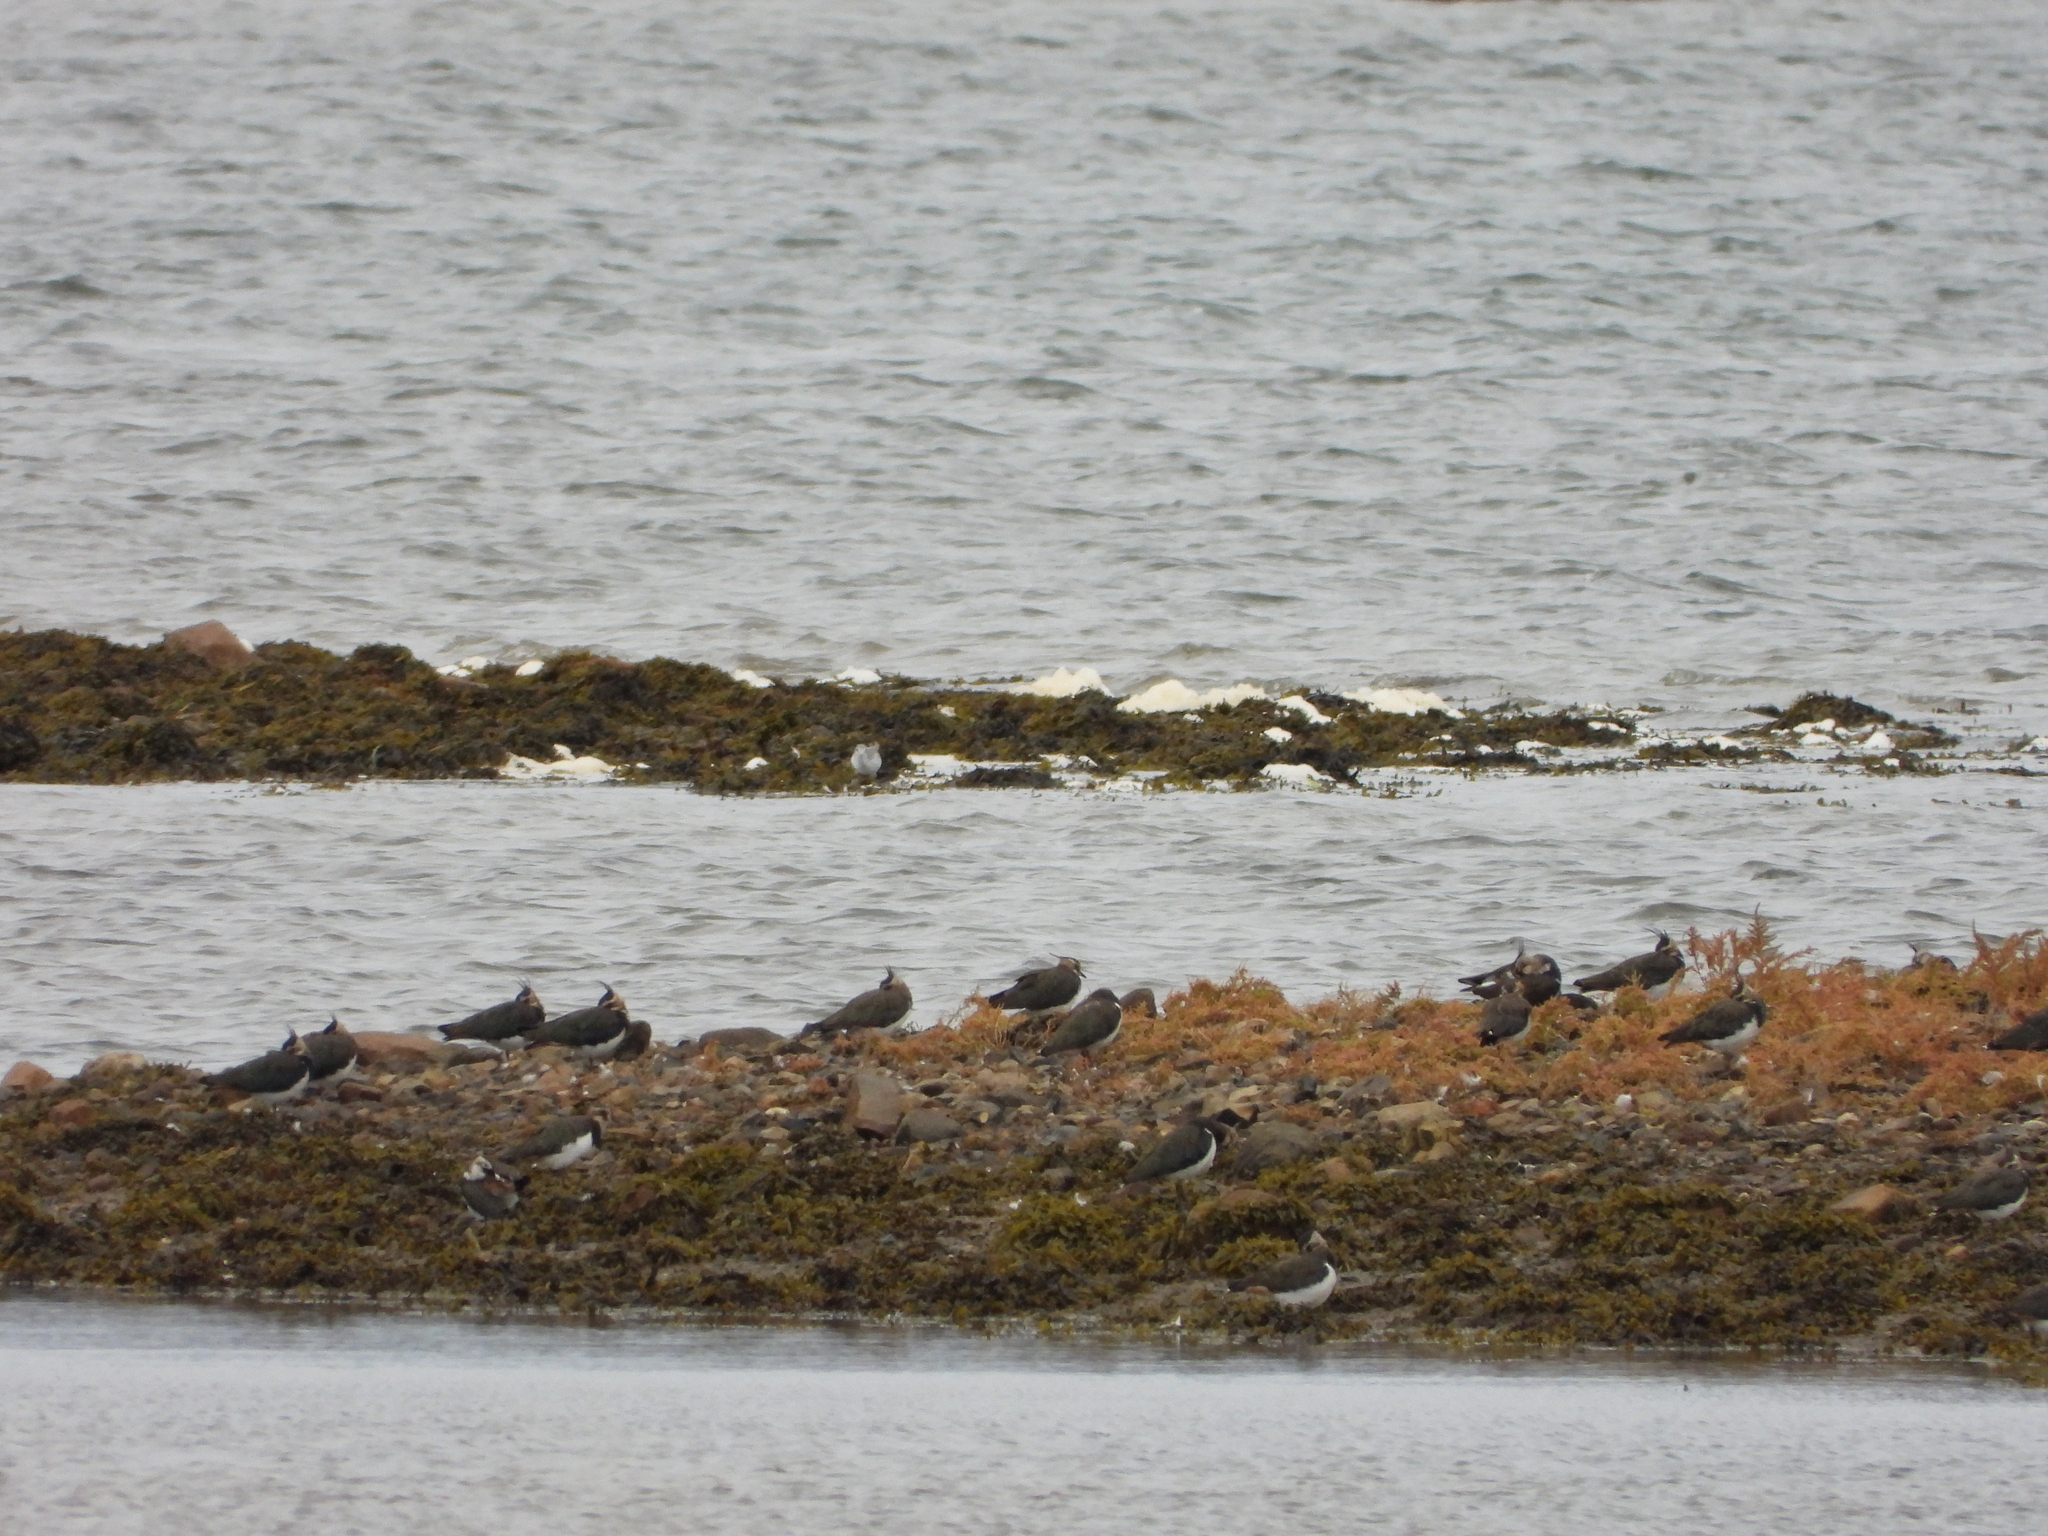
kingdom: Animalia
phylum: Chordata
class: Aves
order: Charadriiformes
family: Charadriidae
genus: Vanellus
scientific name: Vanellus vanellus
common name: Northern lapwing
